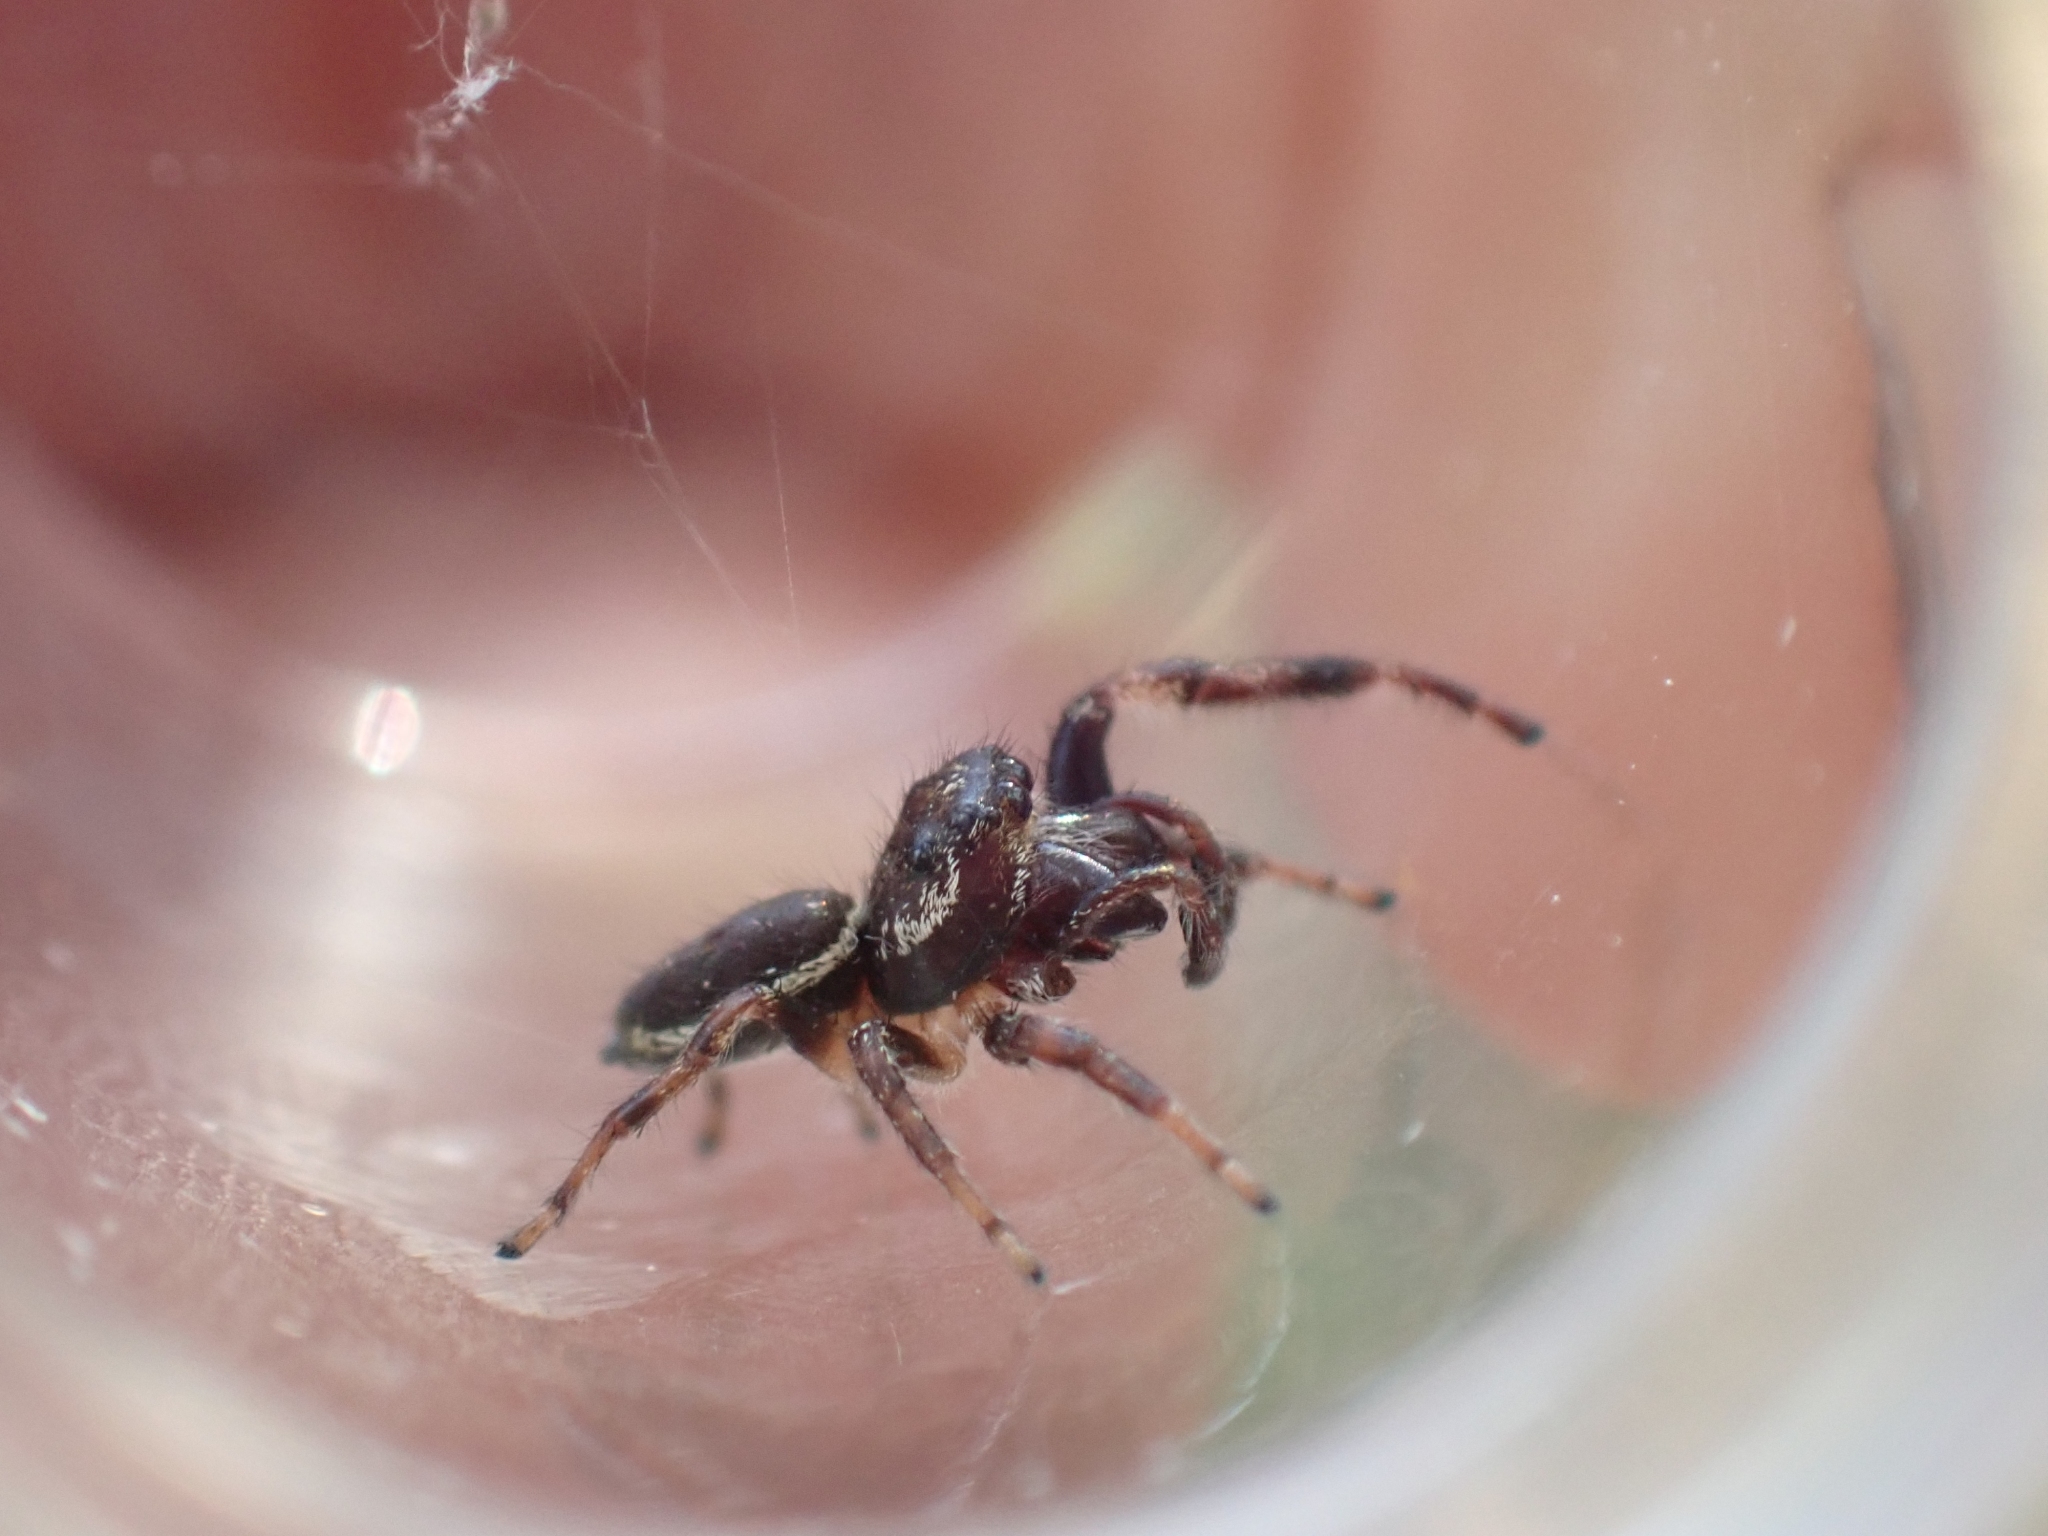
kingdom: Animalia
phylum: Arthropoda
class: Arachnida
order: Araneae
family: Salticidae
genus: Eris
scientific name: Eris militaris
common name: Bronze jumper
